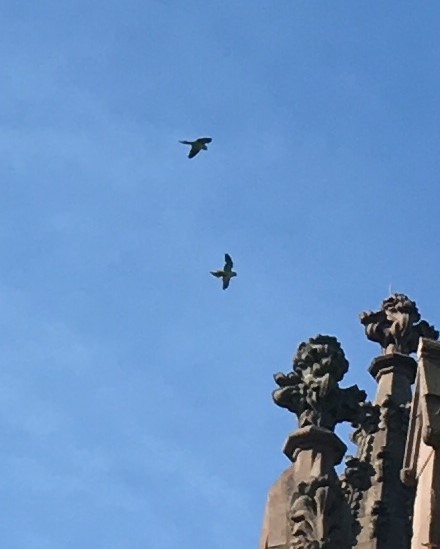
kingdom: Animalia
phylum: Chordata
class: Aves
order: Psittaciformes
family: Psittacidae
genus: Myiopsitta
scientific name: Myiopsitta monachus
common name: Monk parakeet
